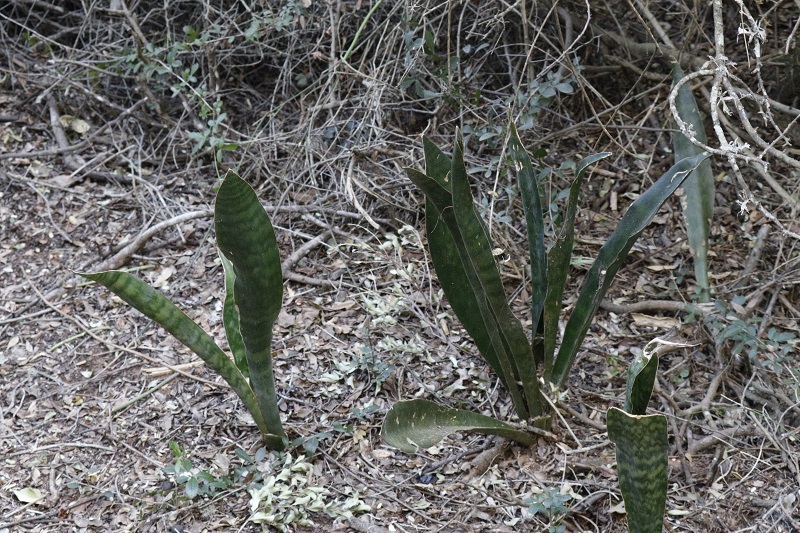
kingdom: Plantae
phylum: Tracheophyta
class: Liliopsida
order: Asparagales
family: Asparagaceae
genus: Dracaena
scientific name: Dracaena hyacinthoides
